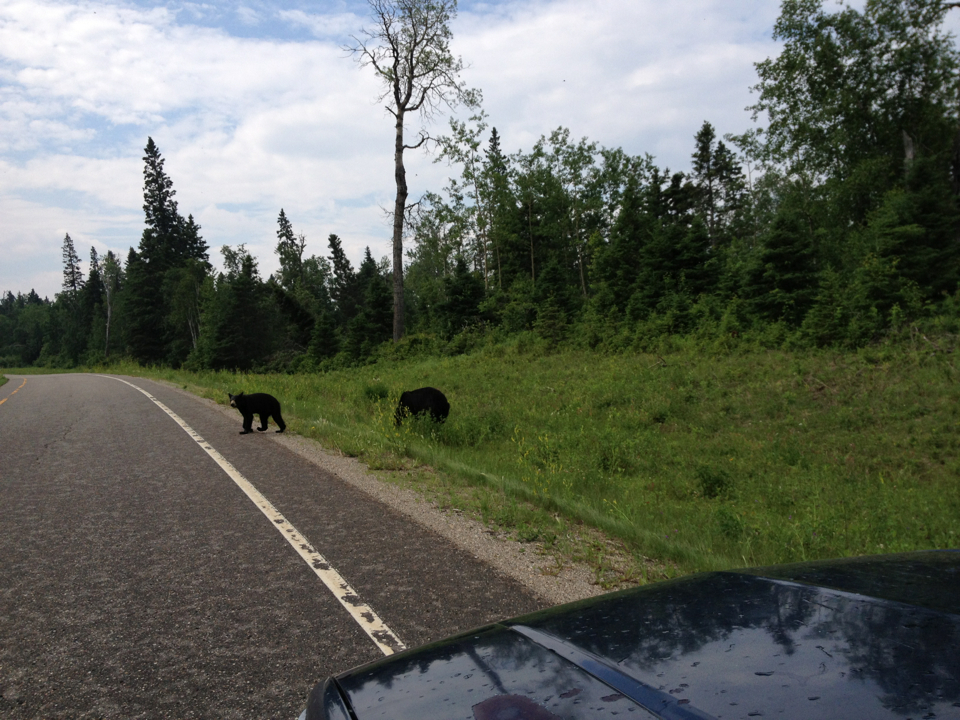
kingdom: Animalia
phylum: Chordata
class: Mammalia
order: Carnivora
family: Ursidae
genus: Ursus
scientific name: Ursus americanus
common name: American black bear
